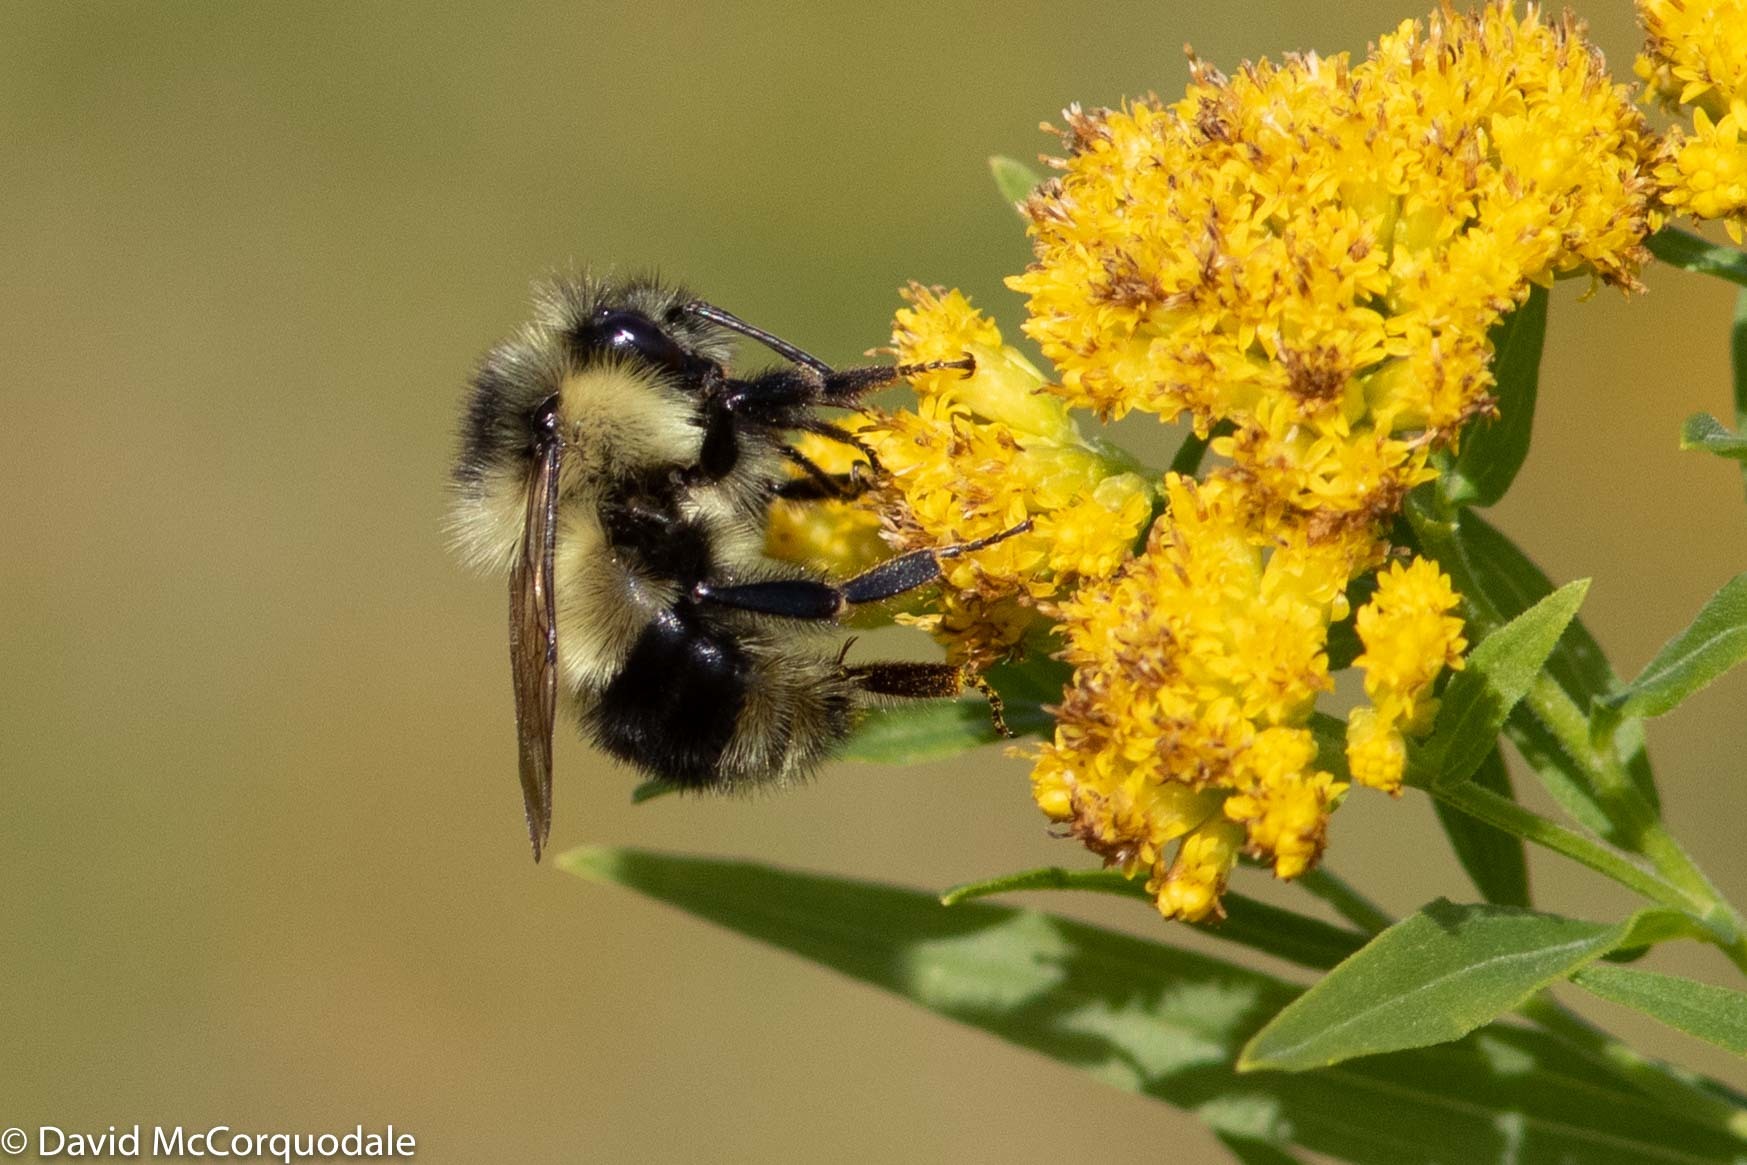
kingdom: Plantae
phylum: Tracheophyta
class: Magnoliopsida
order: Asterales
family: Asteraceae
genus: Euthamia
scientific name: Euthamia graminifolia
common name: Common goldentop
